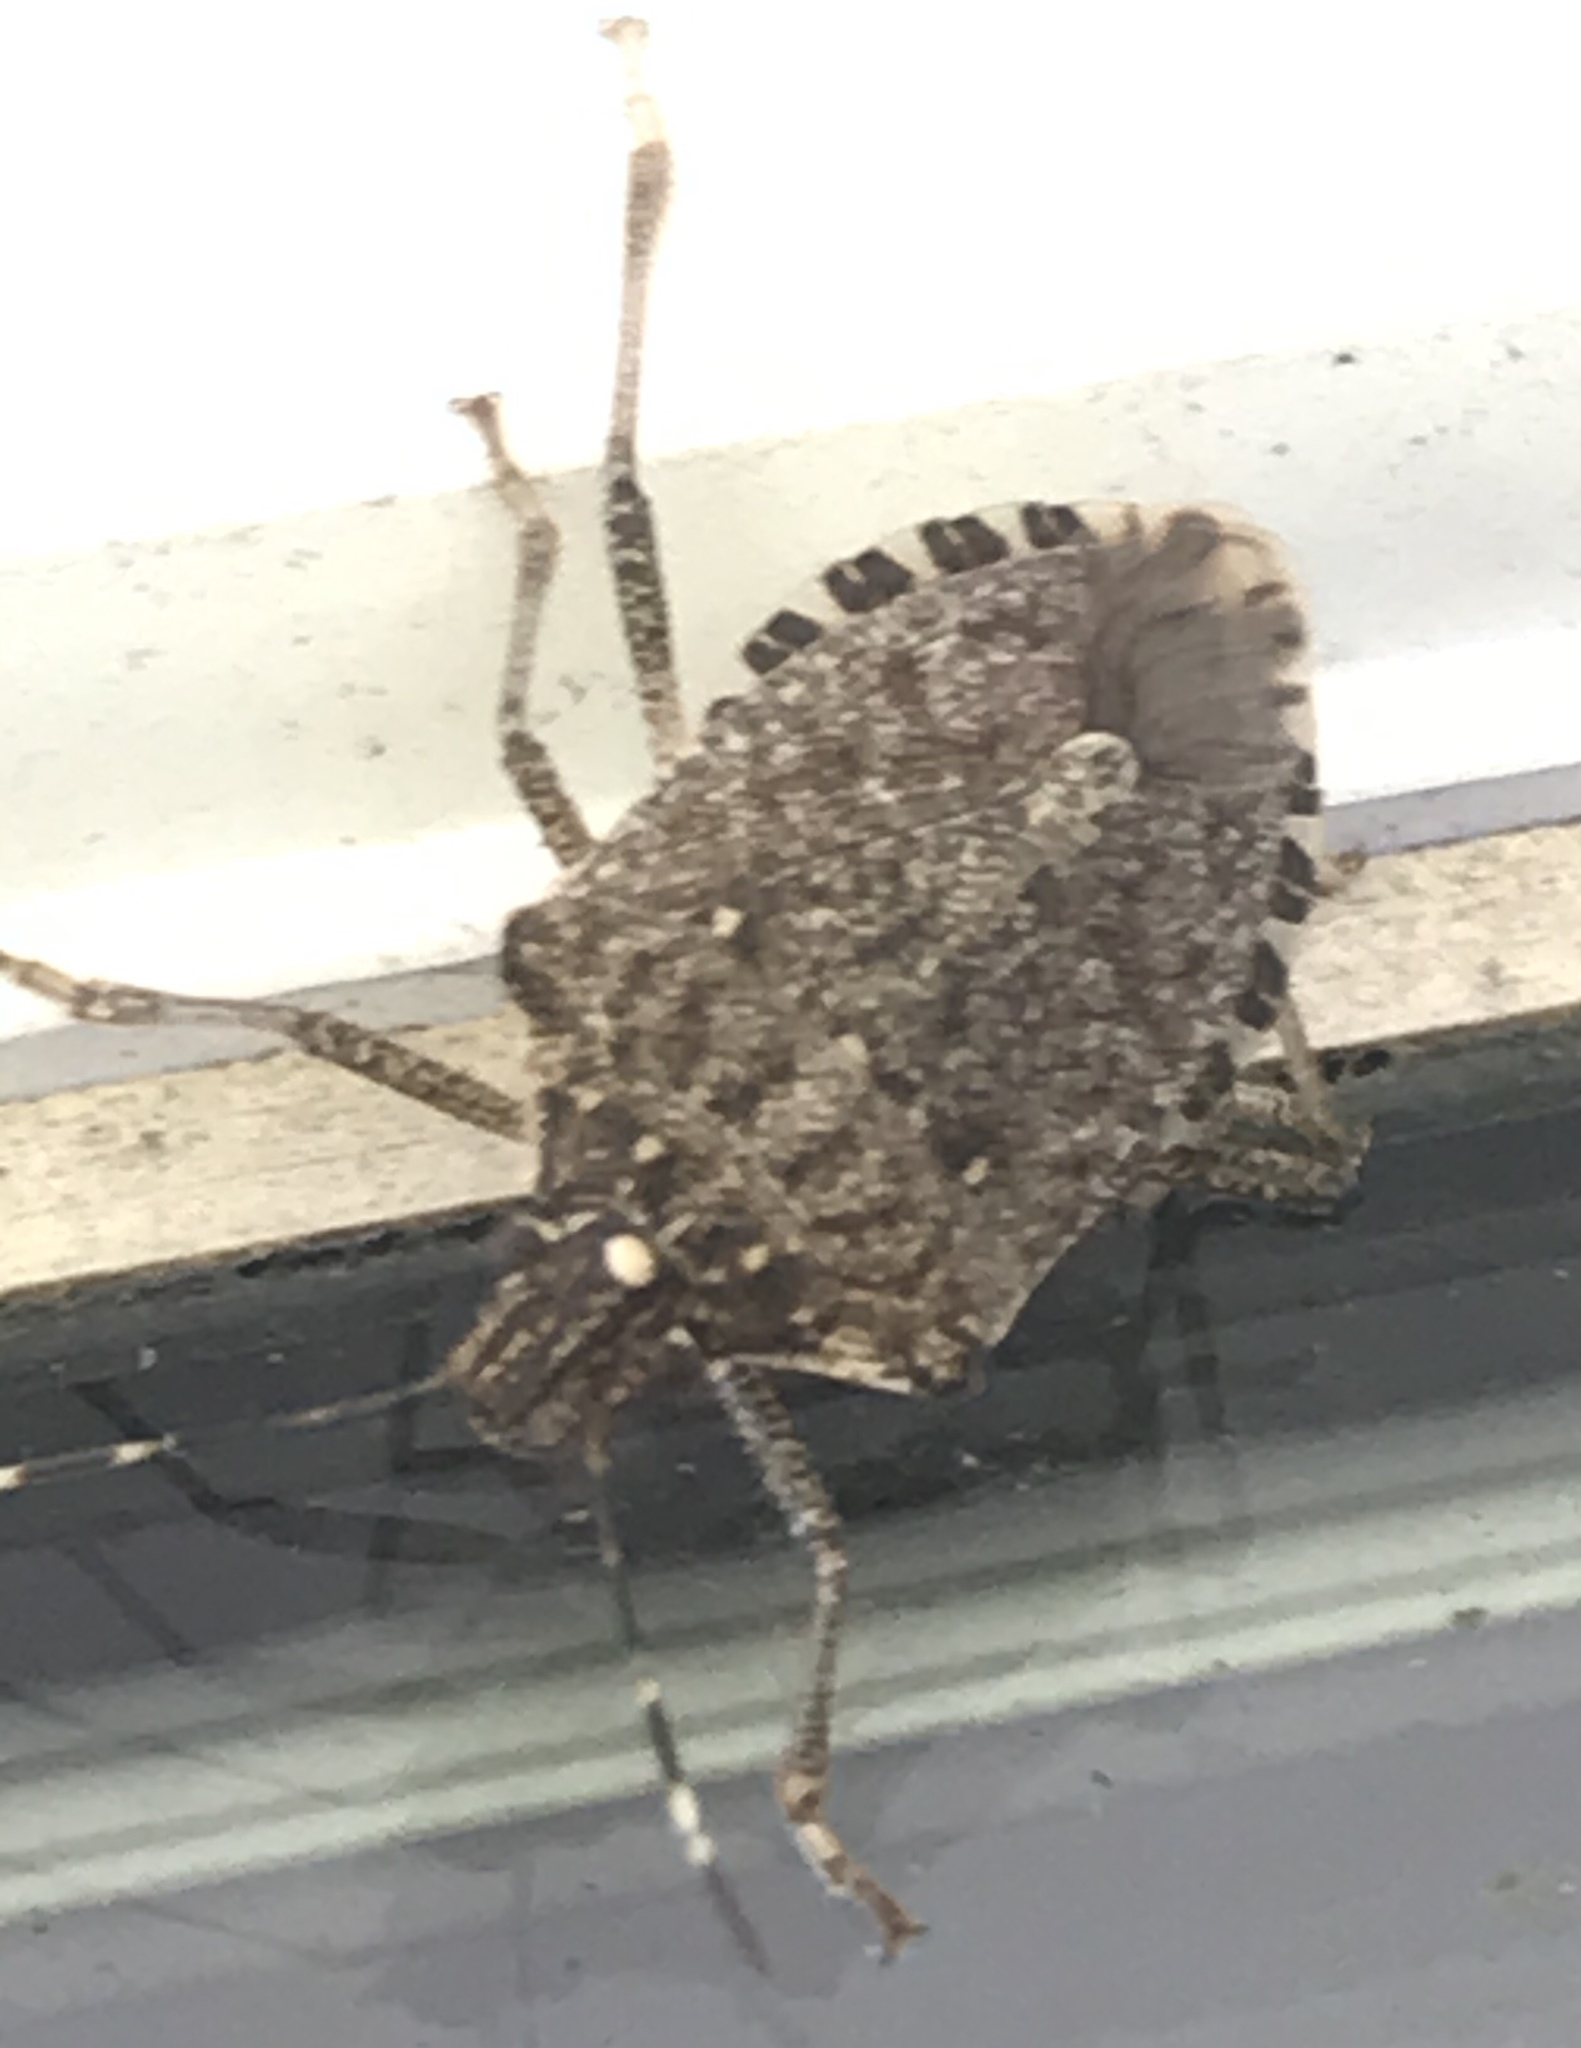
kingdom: Animalia
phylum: Arthropoda
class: Insecta
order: Hemiptera
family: Pentatomidae
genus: Halyomorpha
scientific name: Halyomorpha halys
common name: Brown marmorated stink bug
